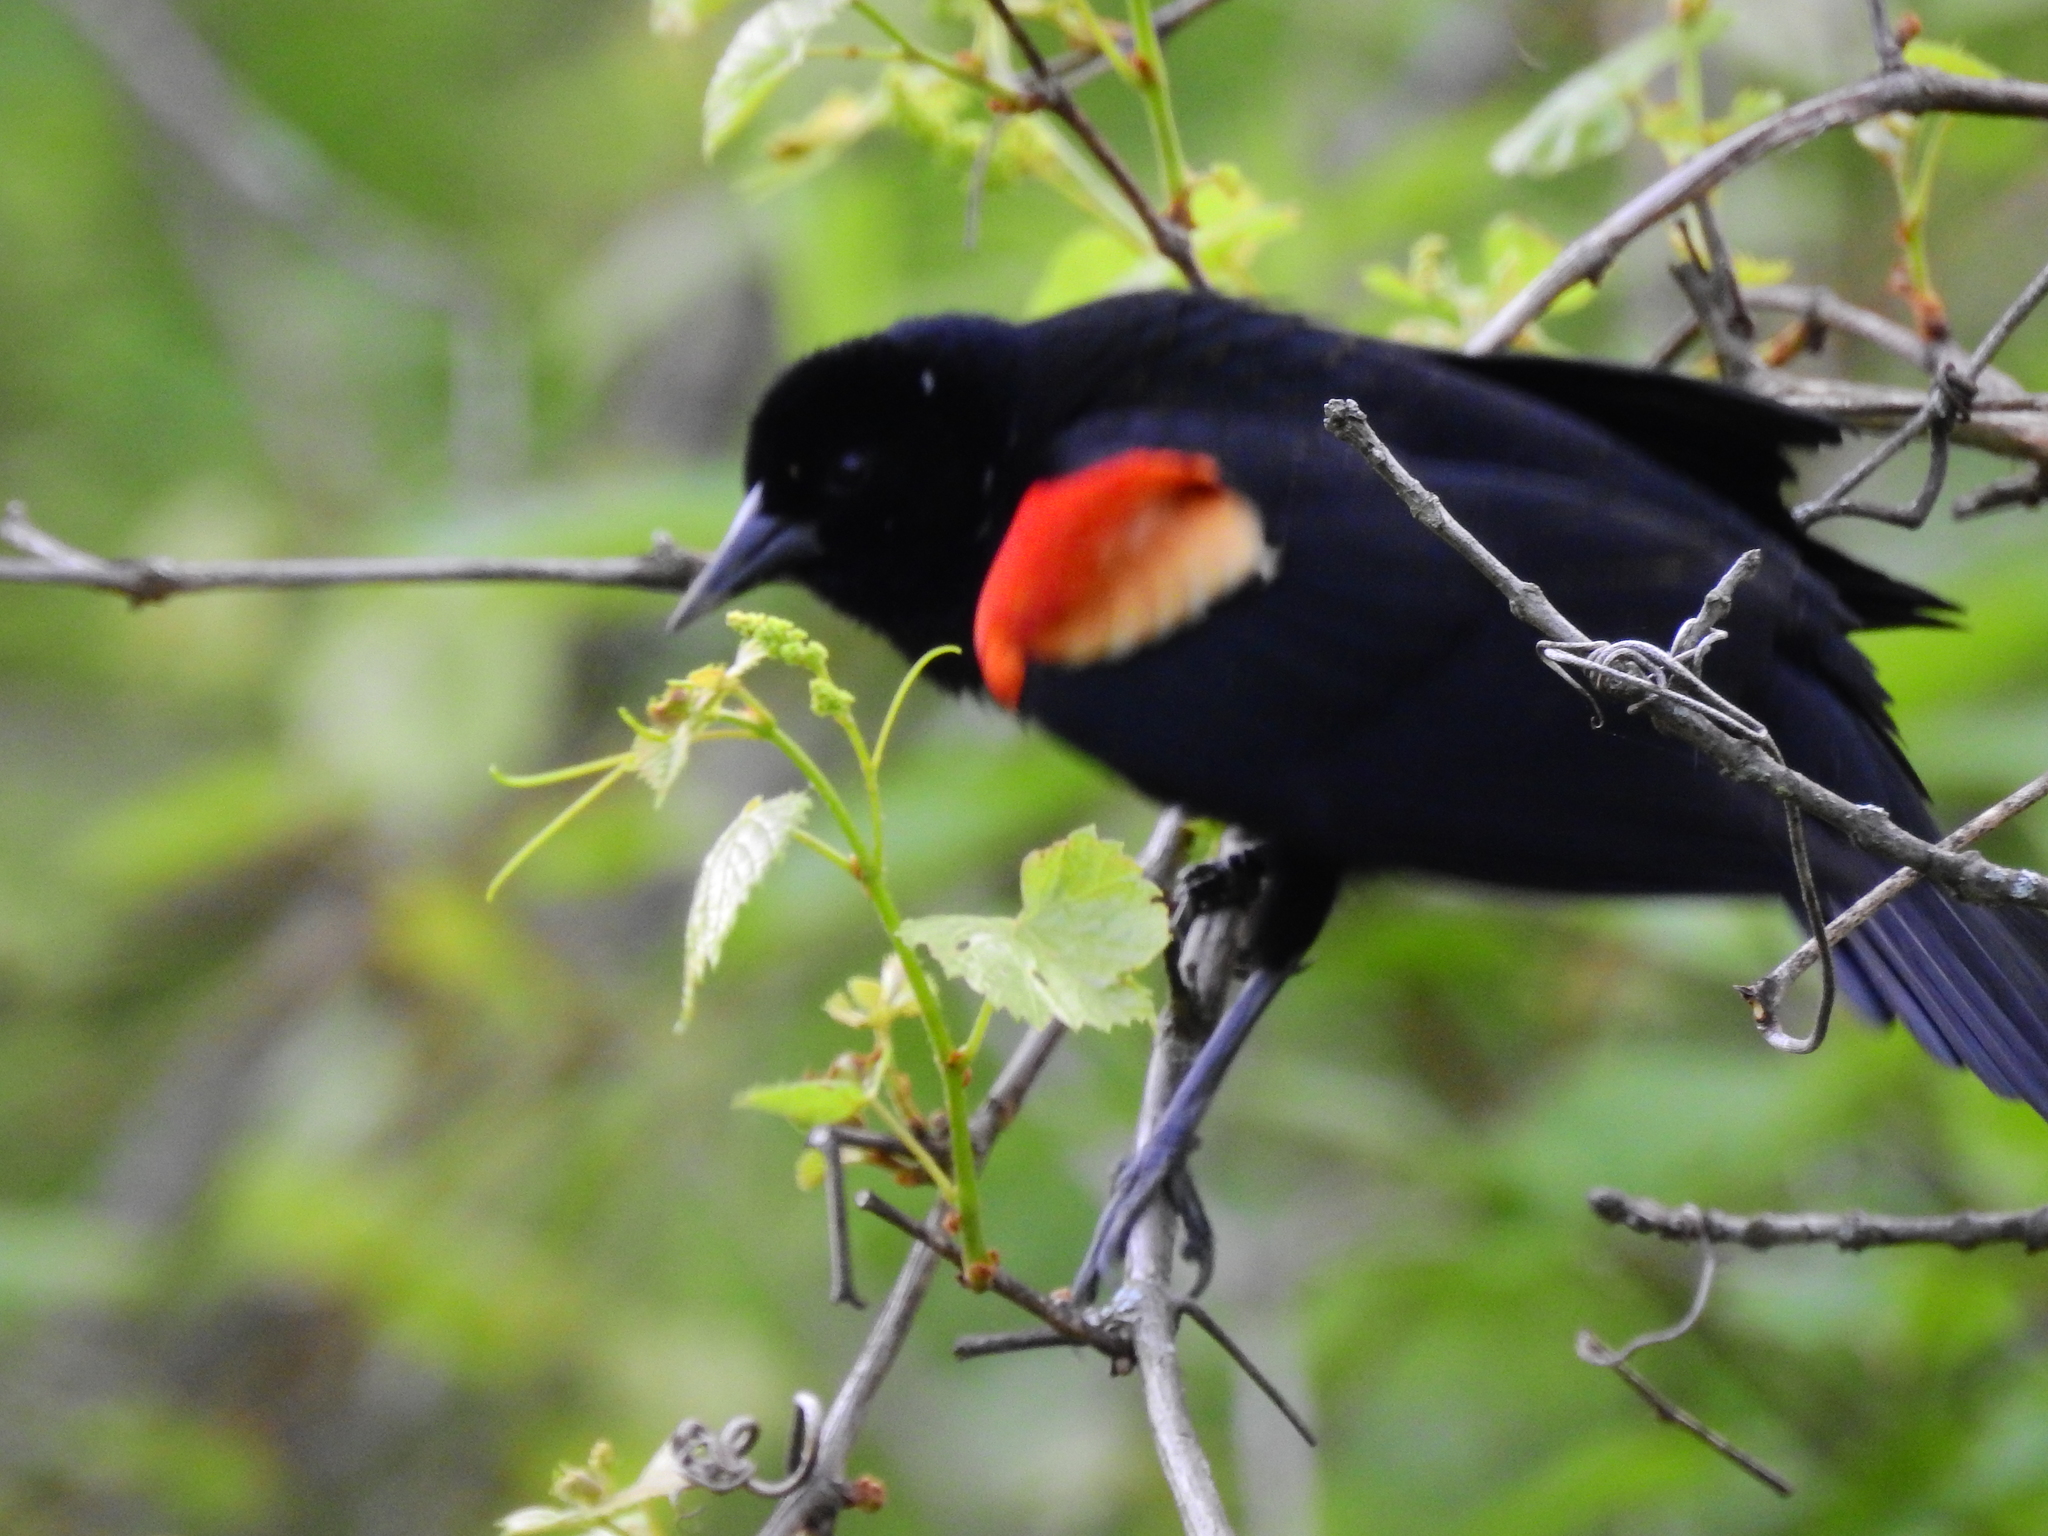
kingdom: Animalia
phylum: Chordata
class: Aves
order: Passeriformes
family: Icteridae
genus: Agelaius
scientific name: Agelaius phoeniceus
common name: Red-winged blackbird
